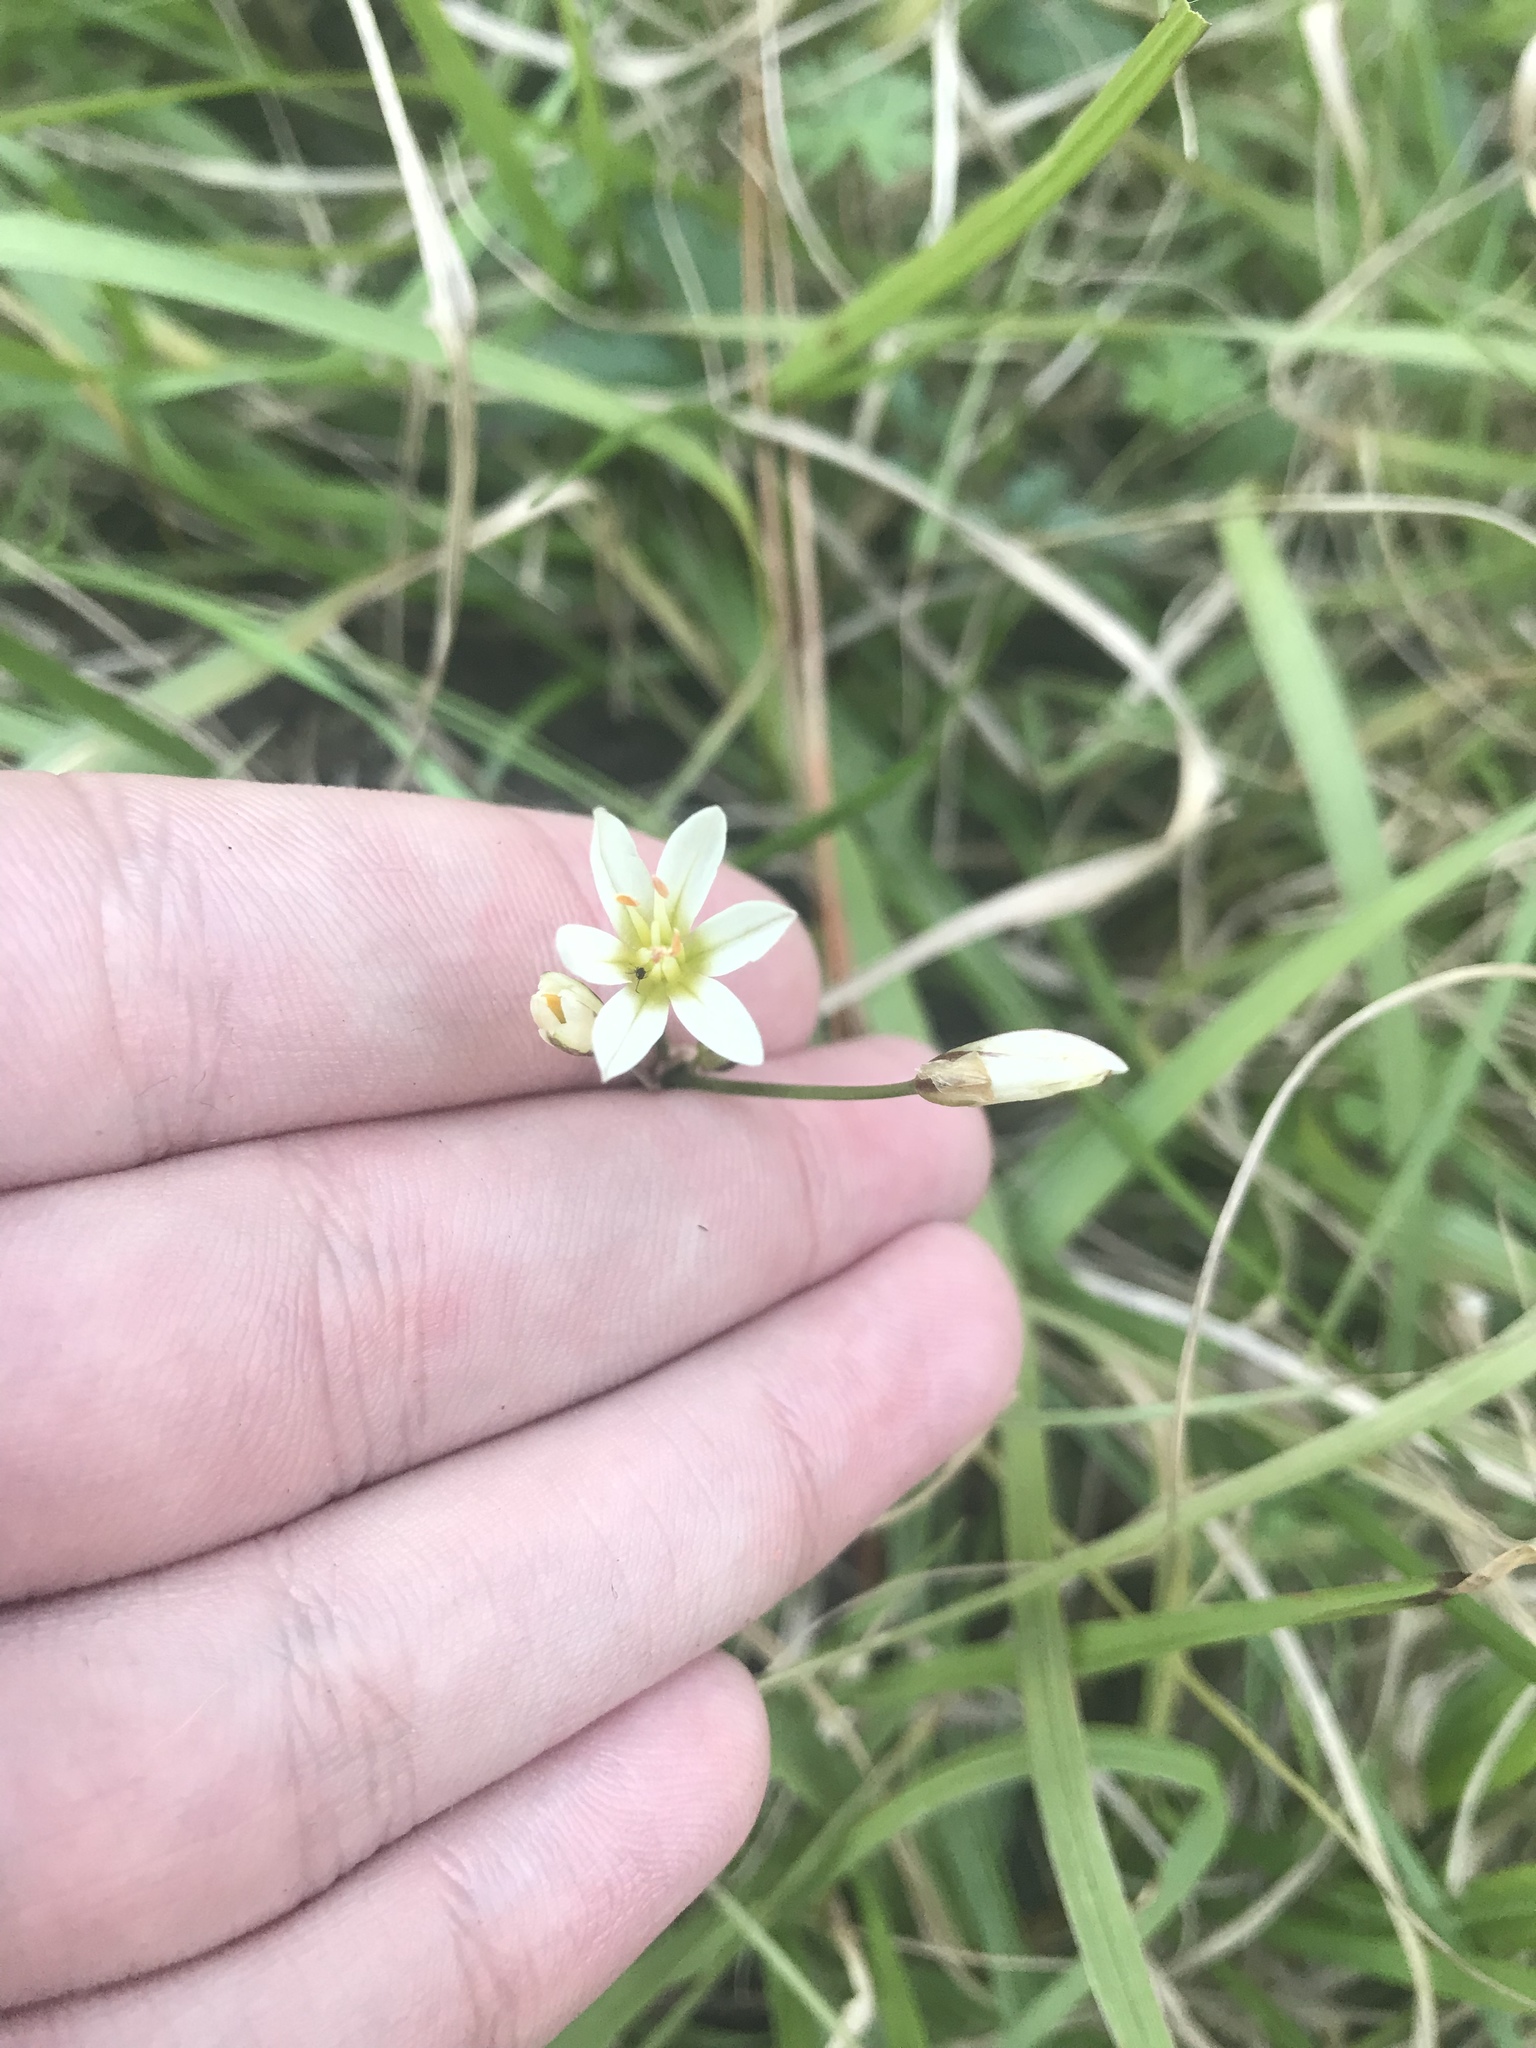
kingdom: Plantae
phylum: Tracheophyta
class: Liliopsida
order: Asparagales
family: Amaryllidaceae
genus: Nothoscordum
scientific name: Nothoscordum bivalve
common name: Crow-poison
